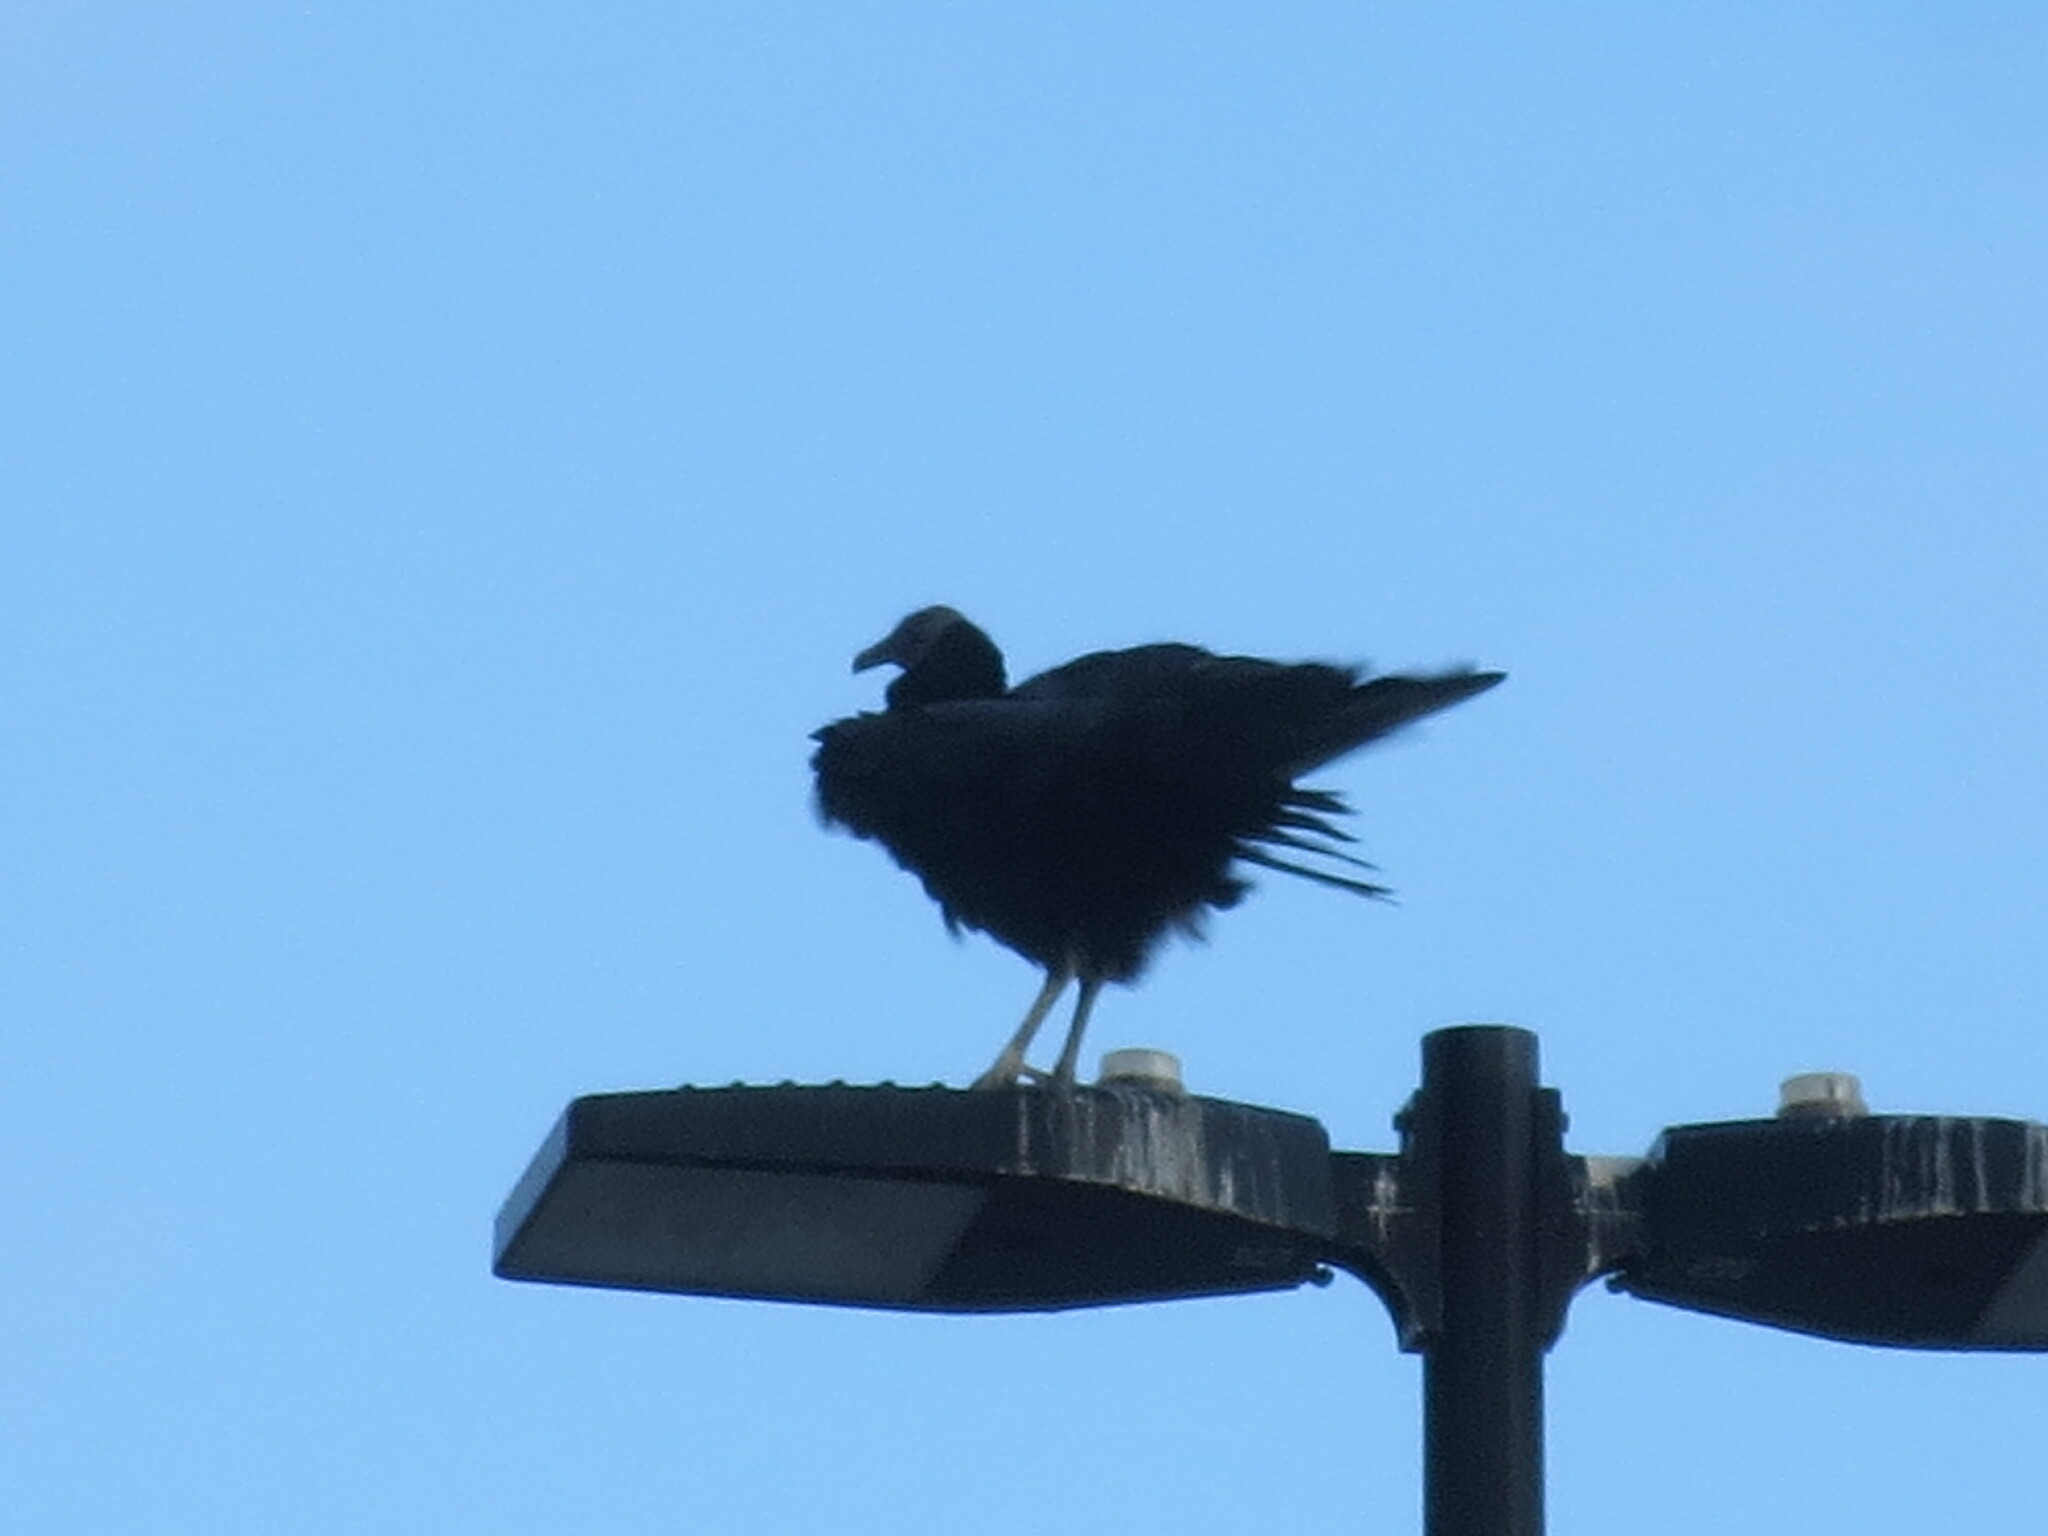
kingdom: Animalia
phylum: Chordata
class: Aves
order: Accipitriformes
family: Cathartidae
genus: Coragyps
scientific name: Coragyps atratus
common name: Black vulture
